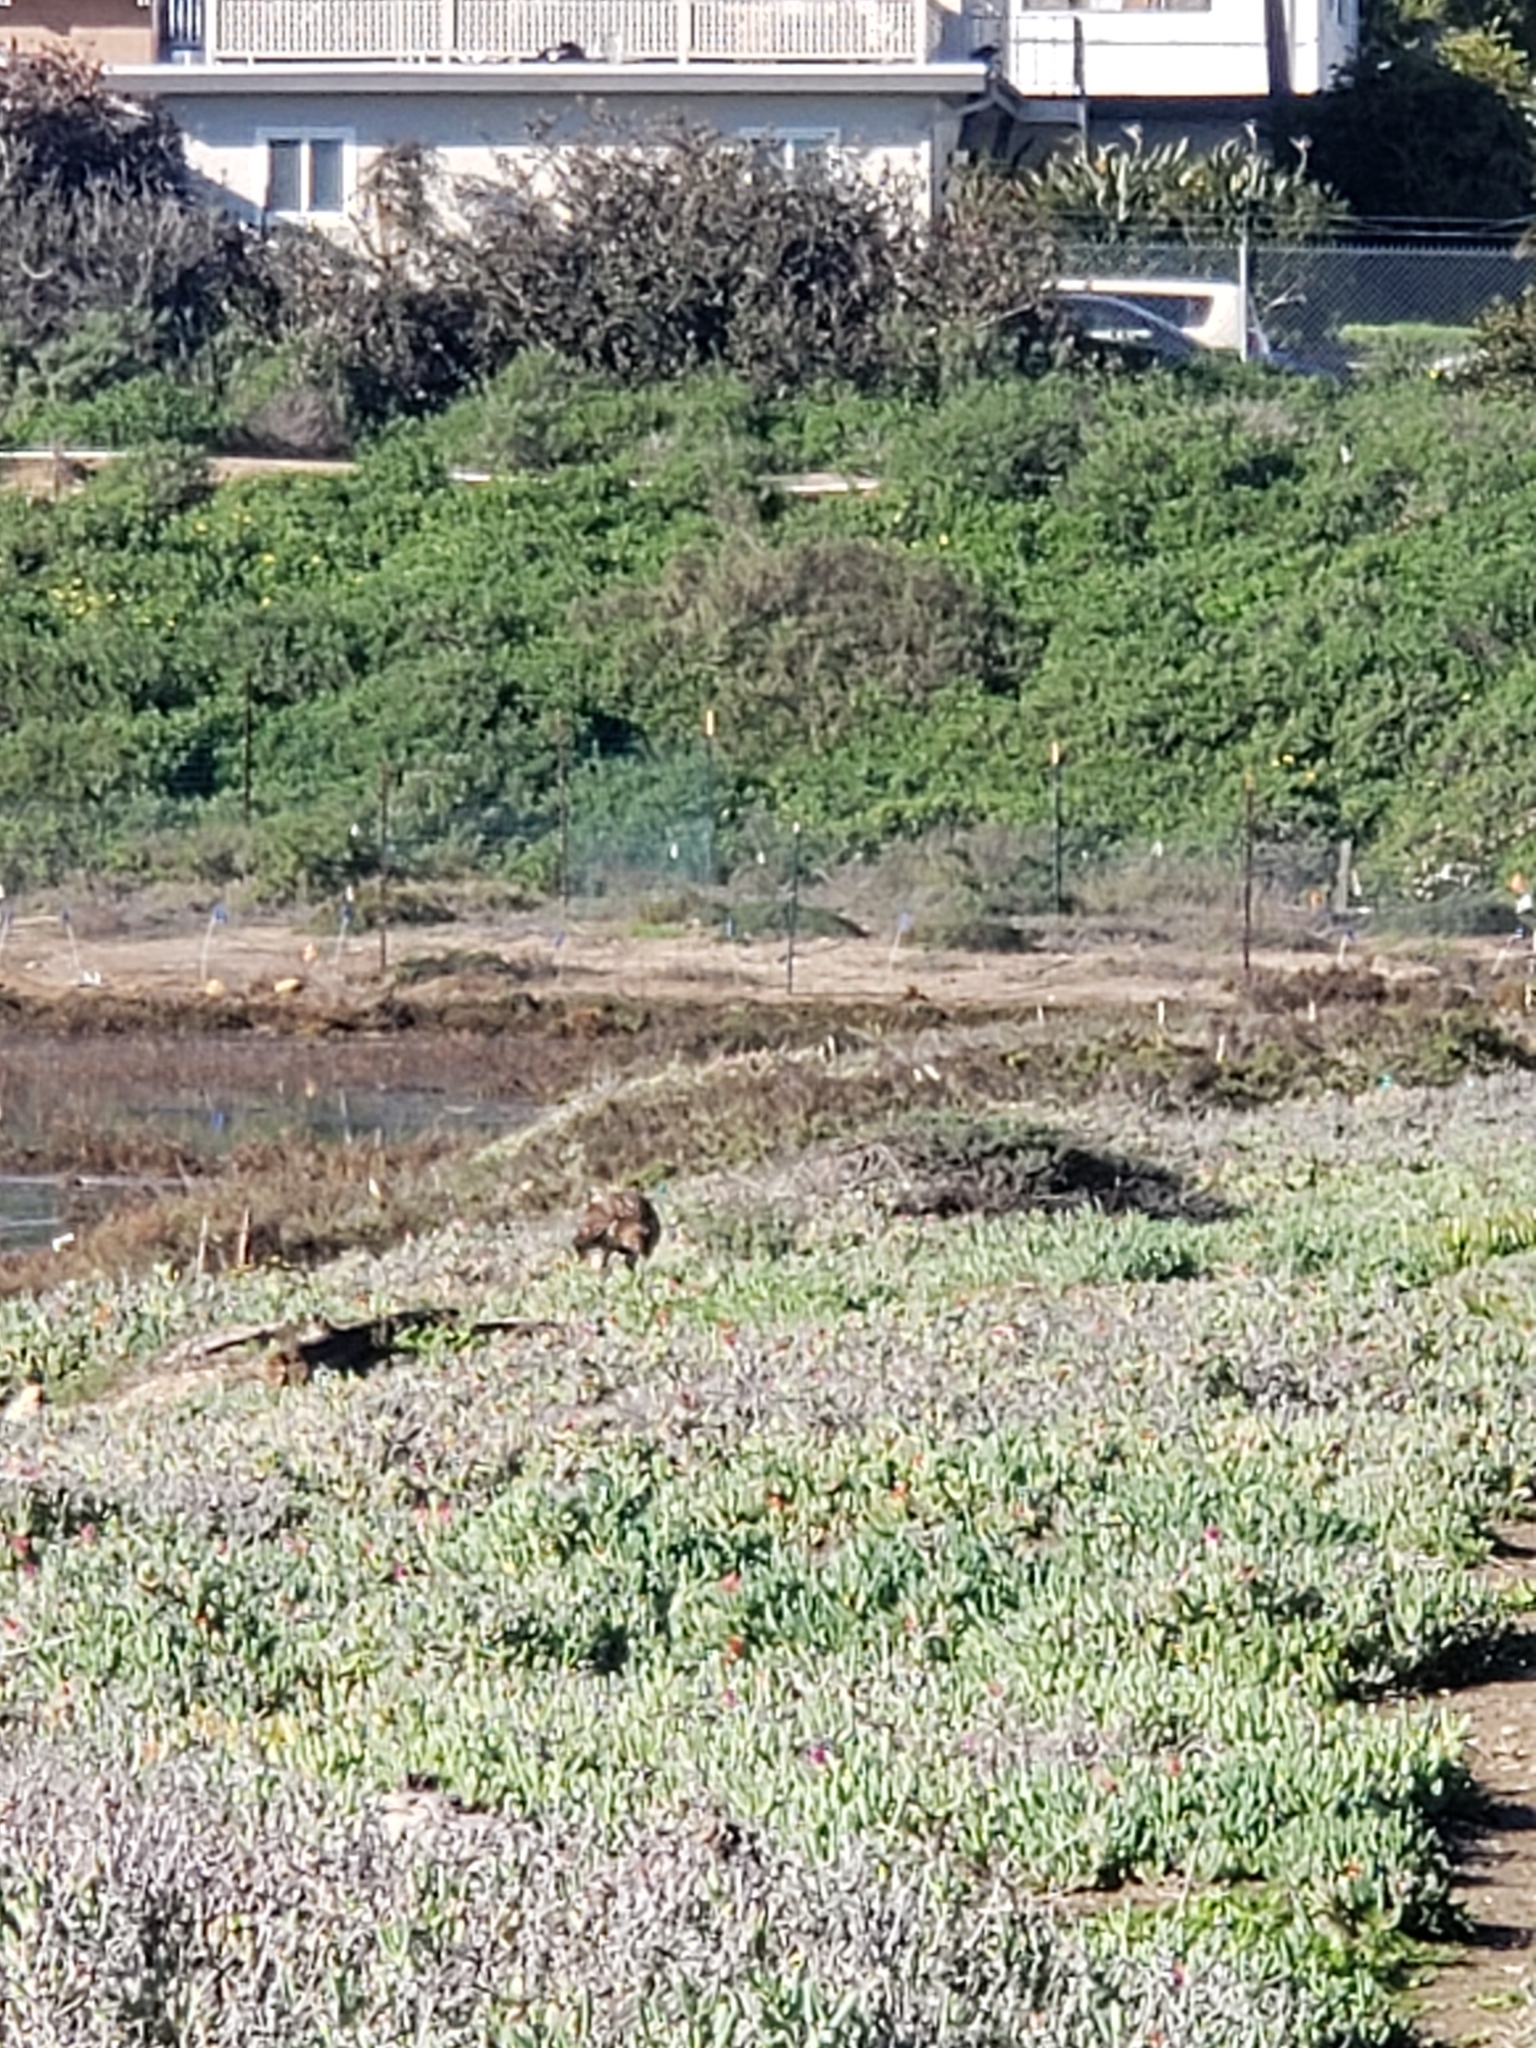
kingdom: Animalia
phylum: Chordata
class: Aves
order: Accipitriformes
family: Accipitridae
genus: Buteo
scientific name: Buteo jamaicensis
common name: Red-tailed hawk
